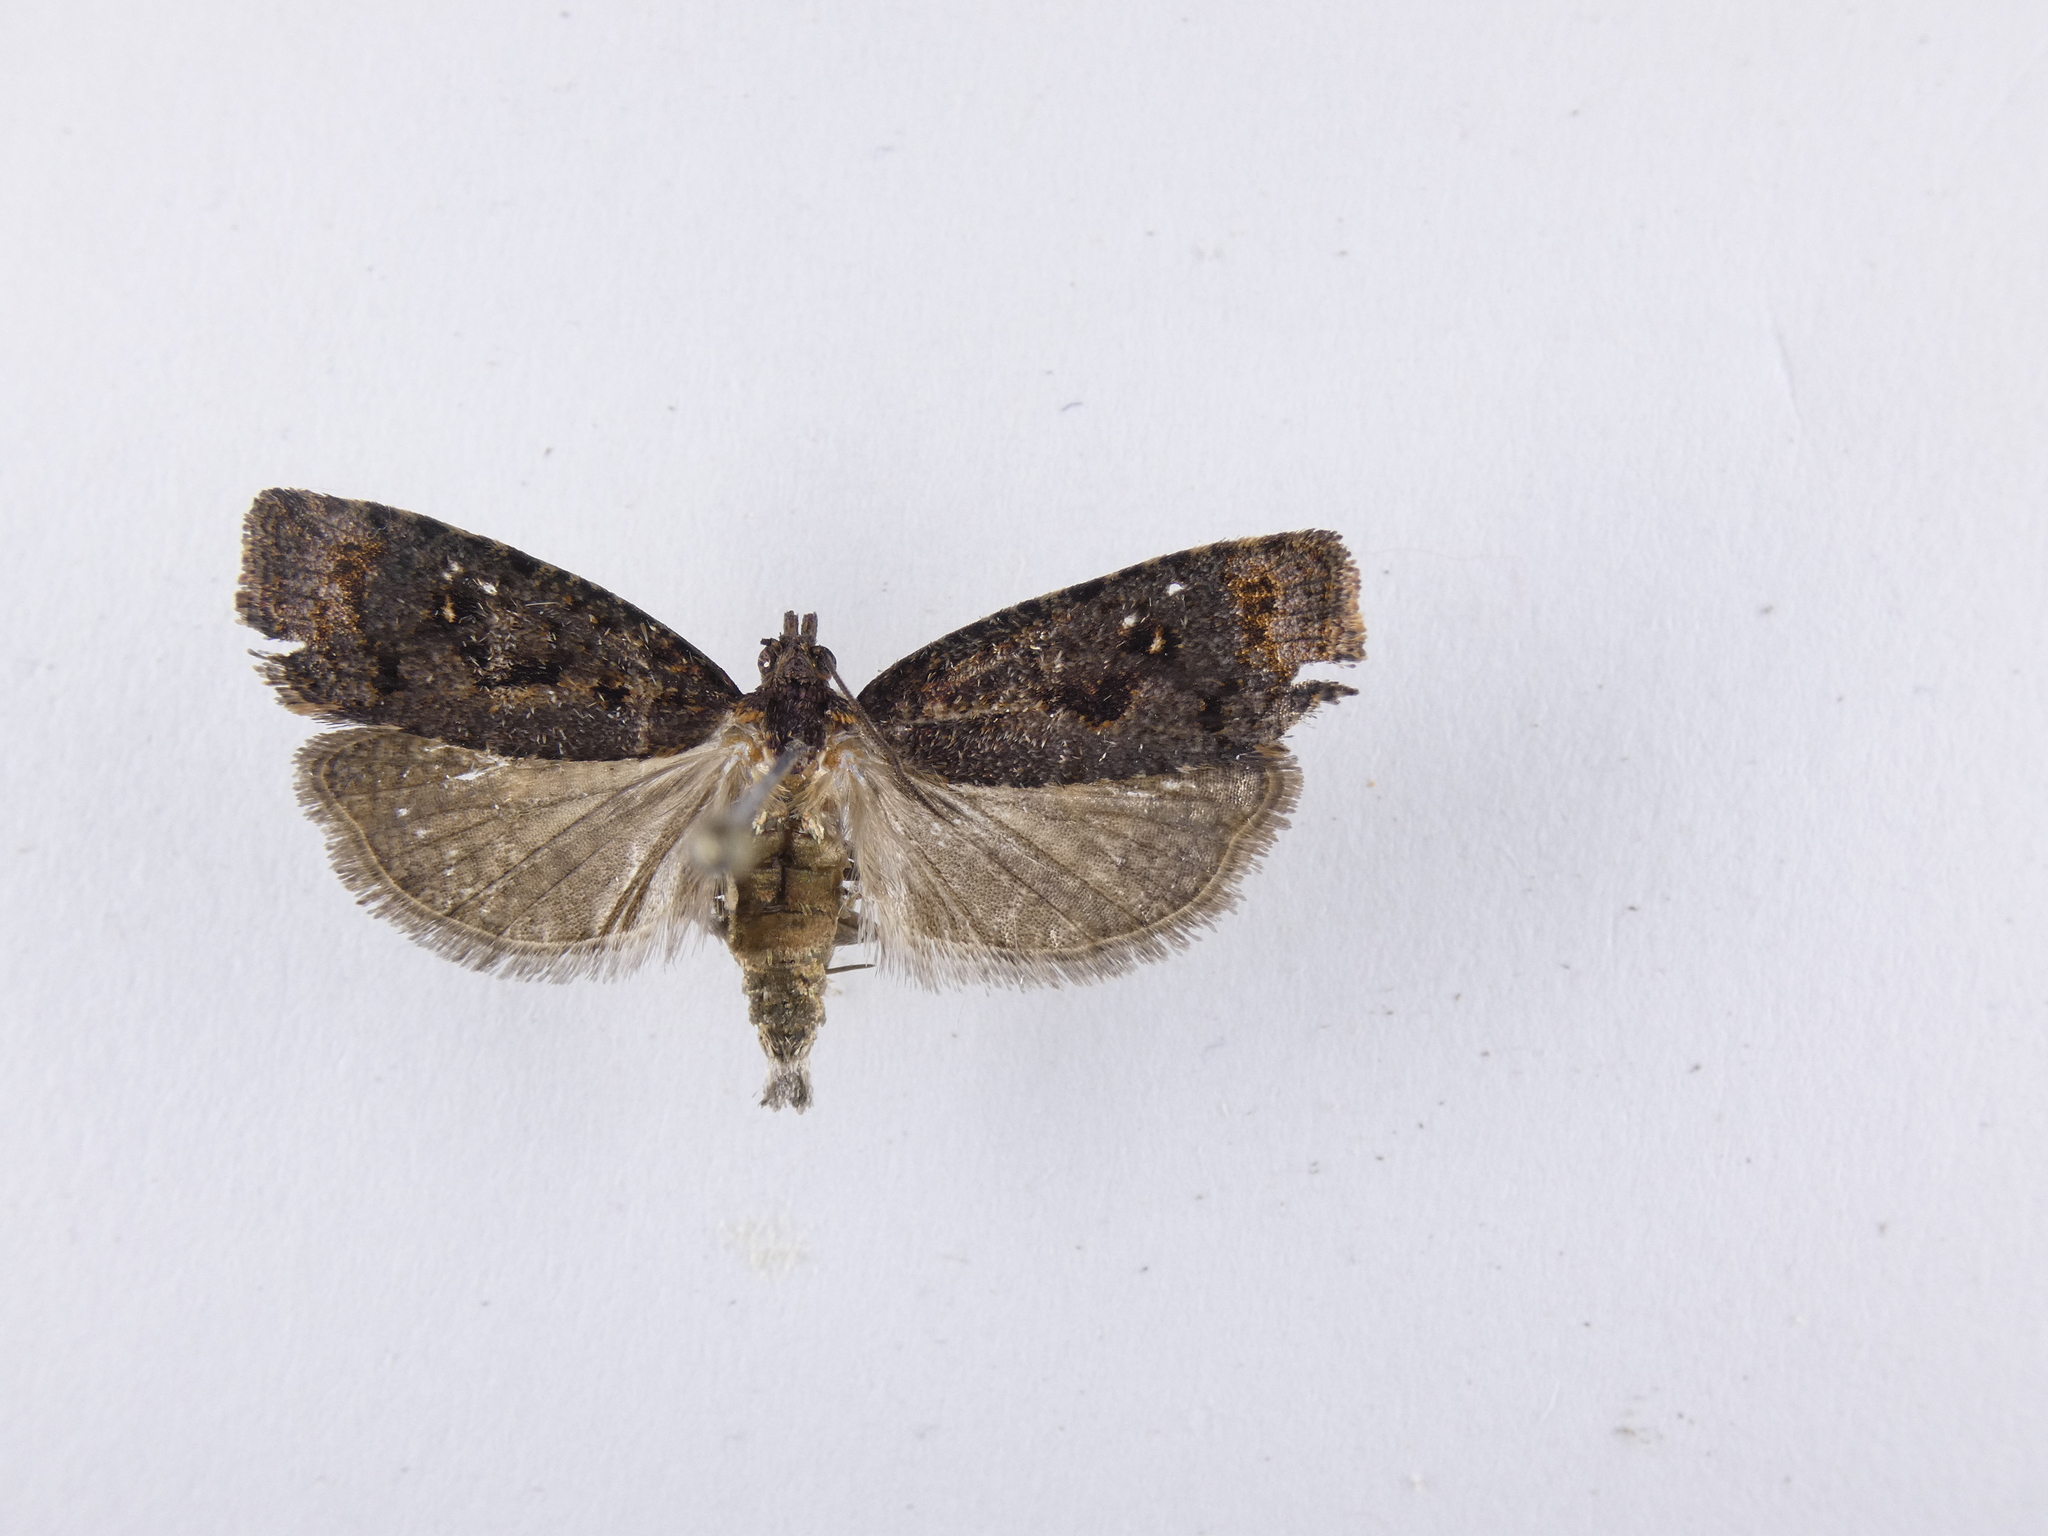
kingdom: Animalia
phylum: Arthropoda
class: Insecta
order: Lepidoptera
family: Tortricidae
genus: Cryptaspasma
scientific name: Cryptaspasma querula
